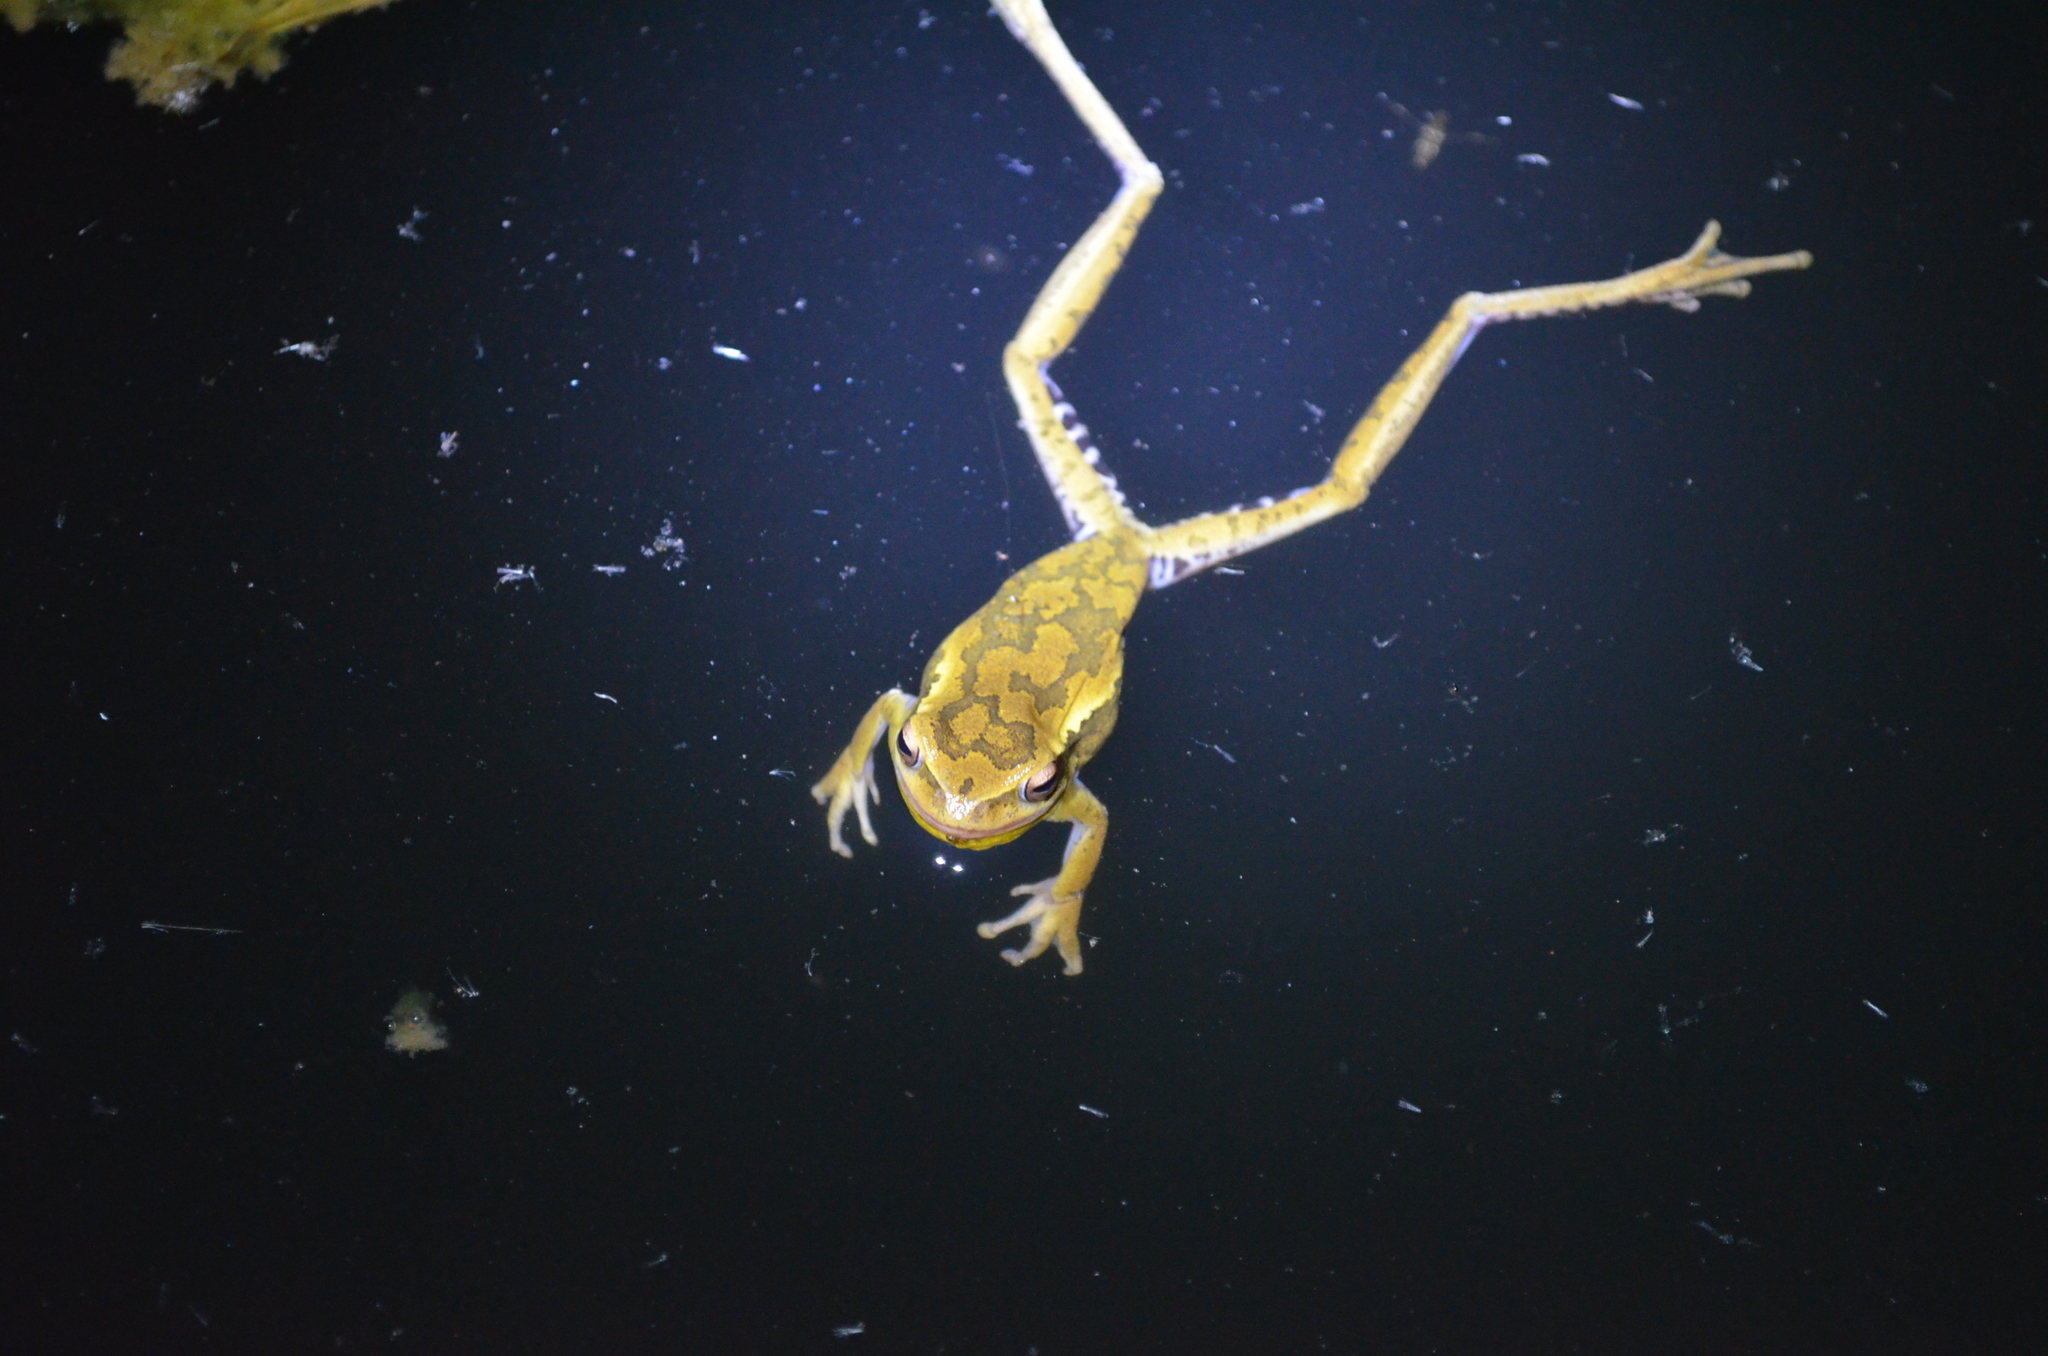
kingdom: Animalia
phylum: Chordata
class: Amphibia
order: Anura
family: Hylidae
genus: Boana
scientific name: Boana pulchella
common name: Montevideo treefrog
